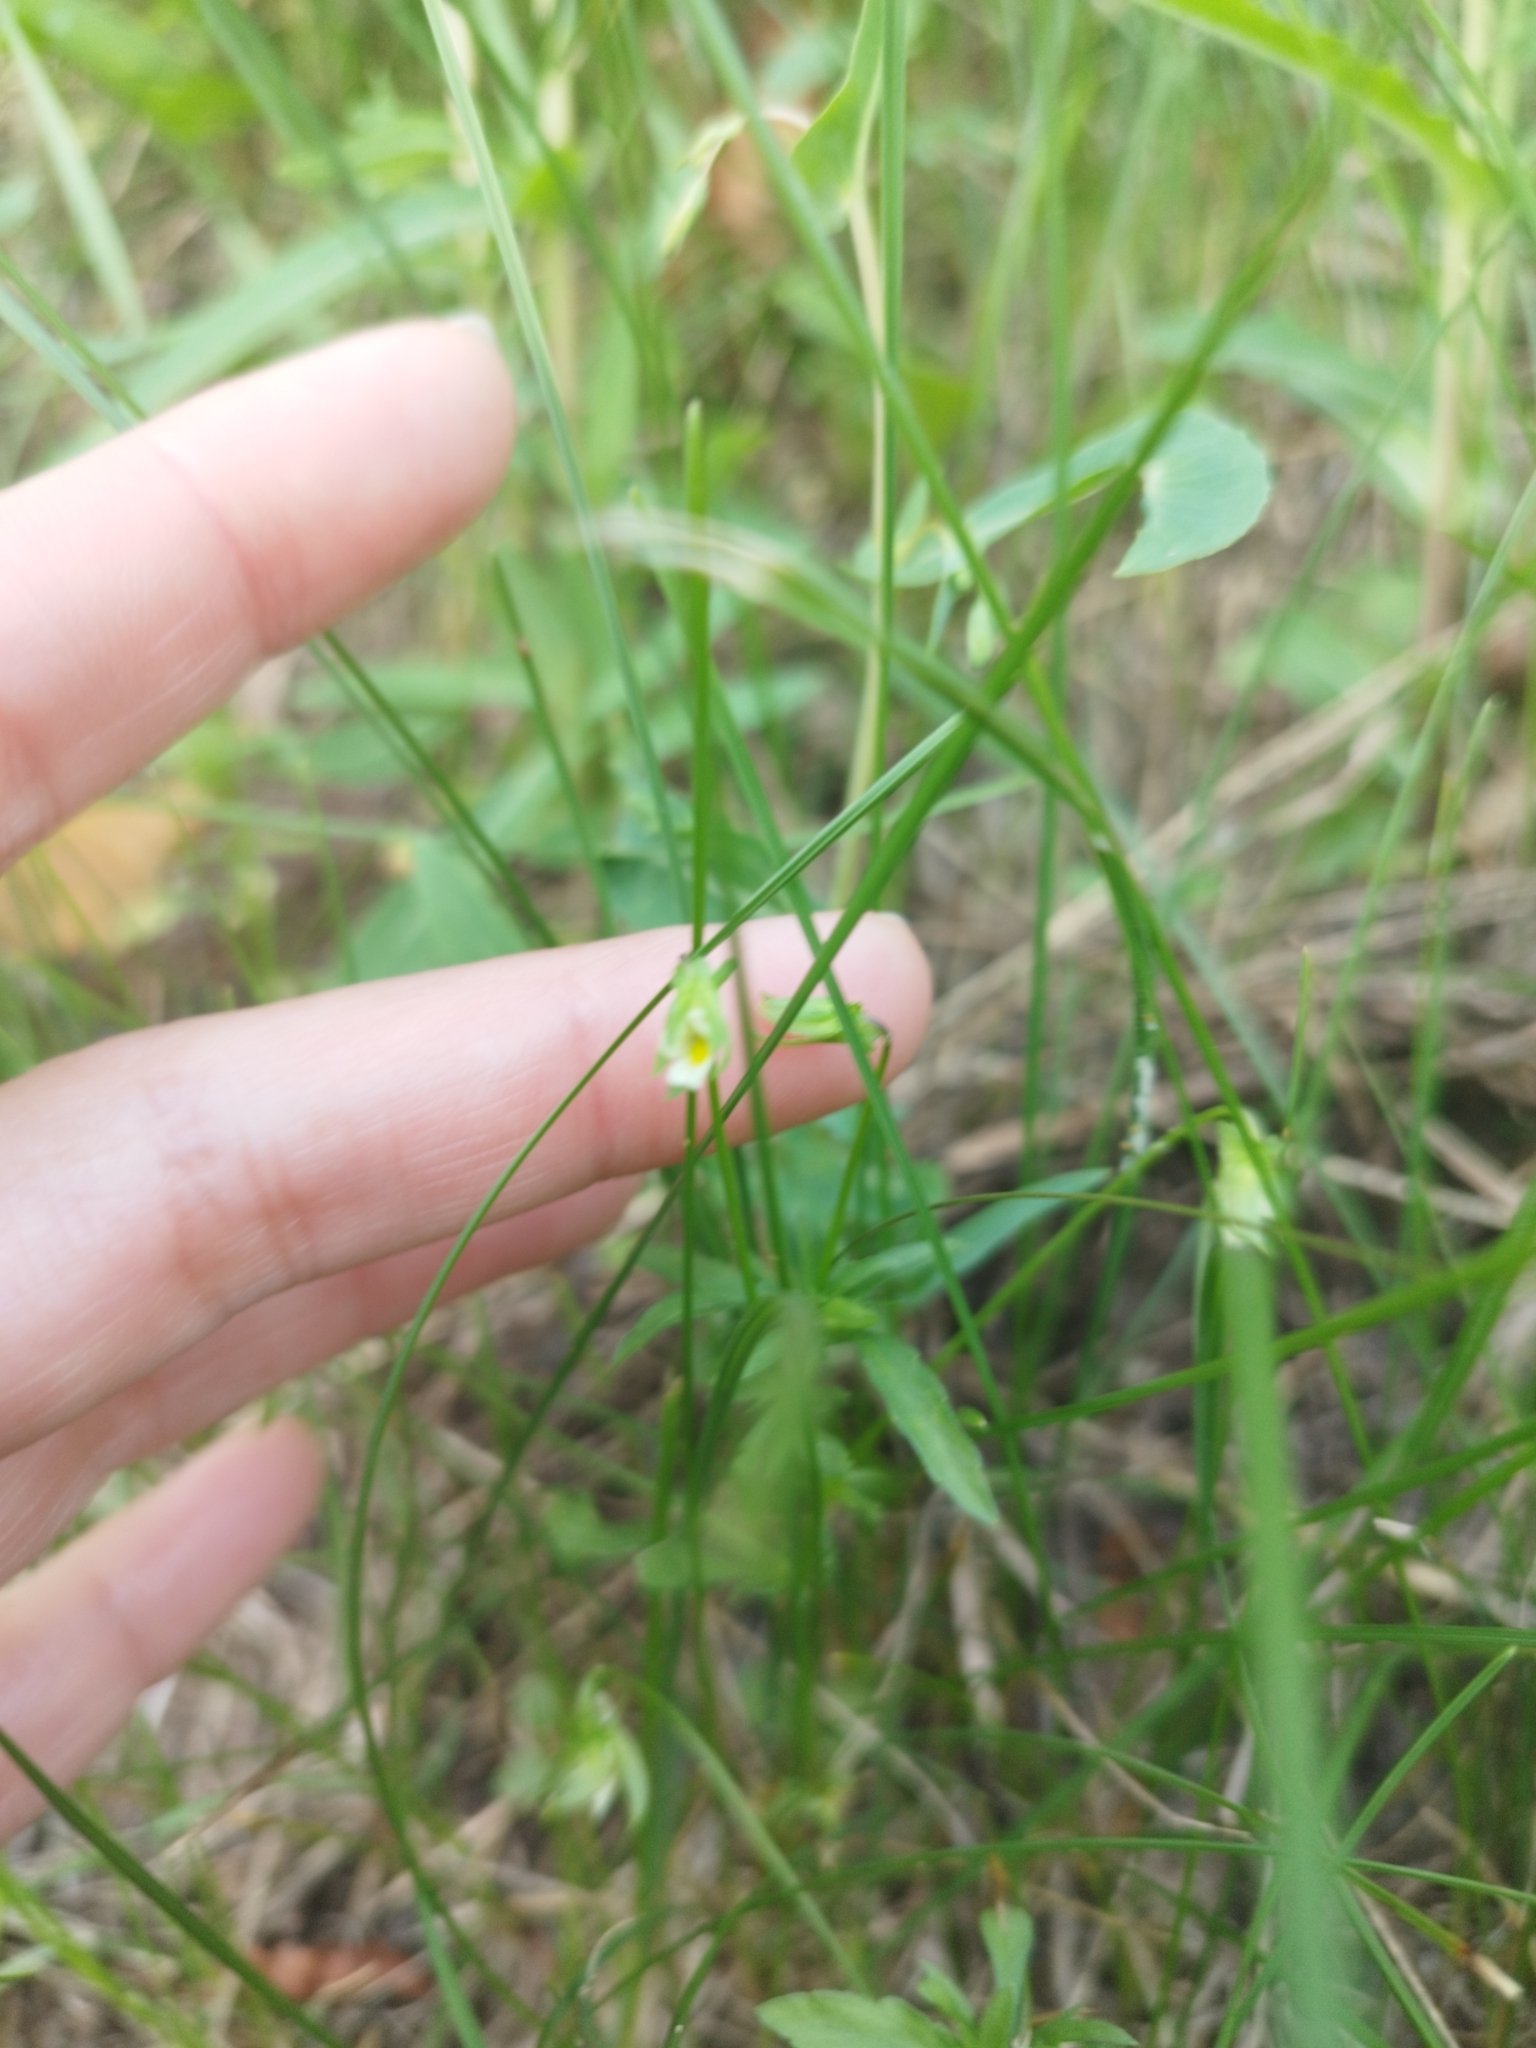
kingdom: Plantae
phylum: Tracheophyta
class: Magnoliopsida
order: Malpighiales
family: Violaceae
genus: Viola
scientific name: Viola arvensis
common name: Field pansy
